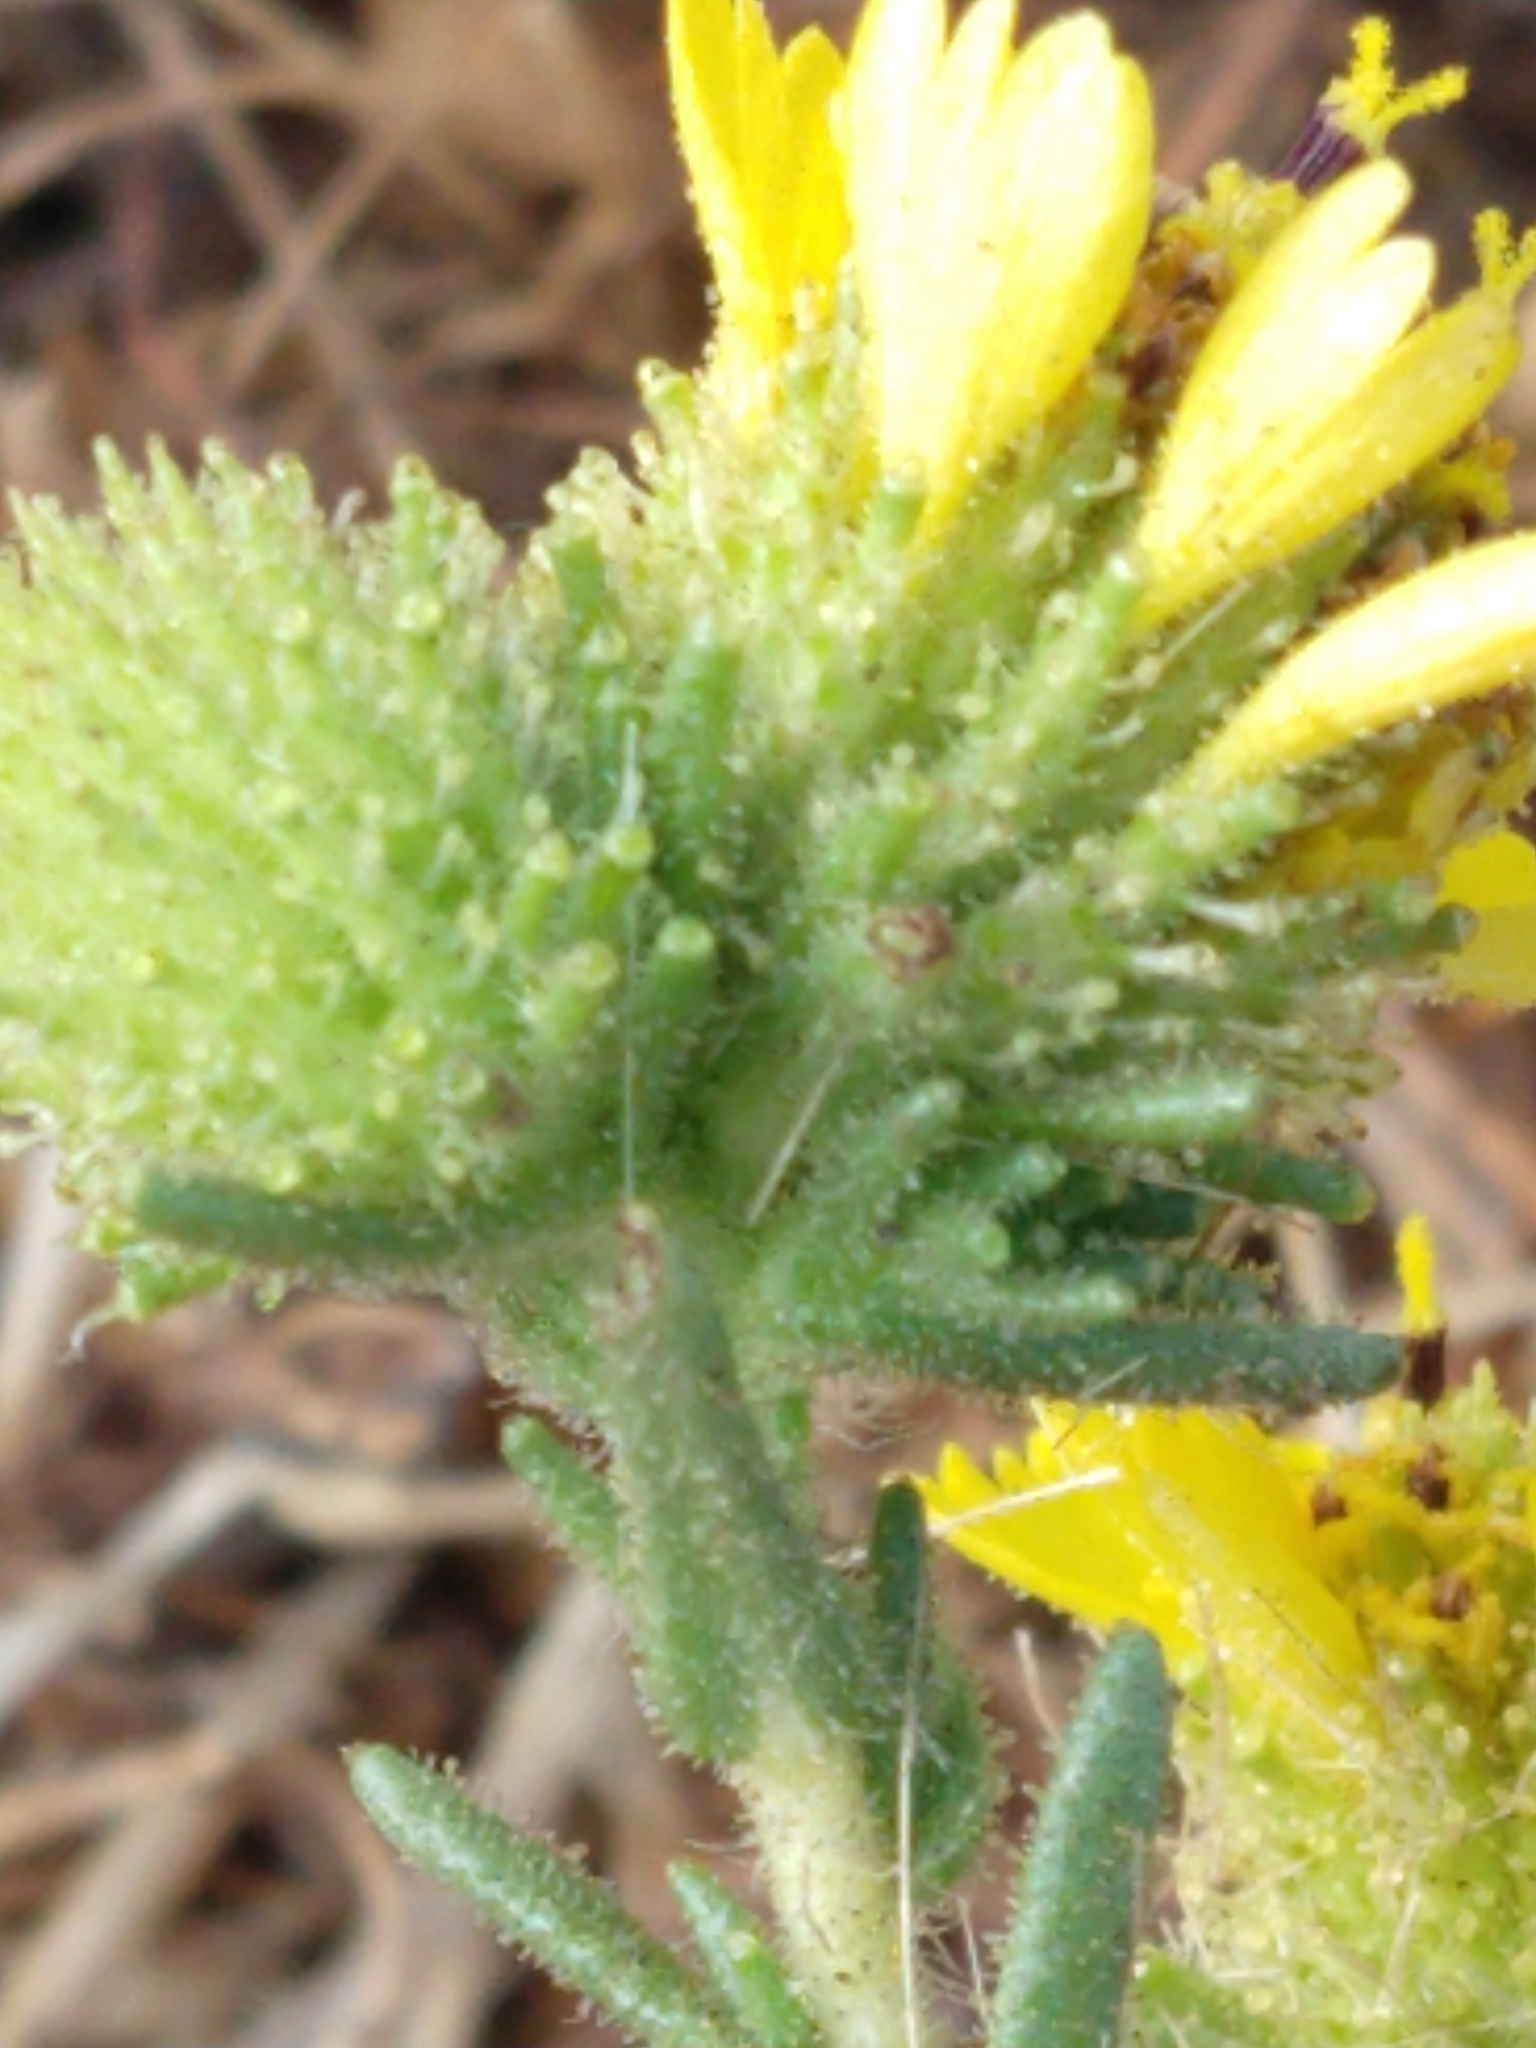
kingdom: Plantae
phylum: Tracheophyta
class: Magnoliopsida
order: Asterales
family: Asteraceae
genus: Holocarpha
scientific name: Holocarpha macradenia
